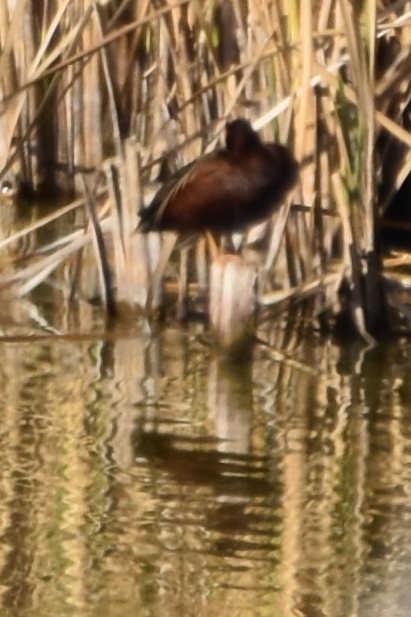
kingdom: Animalia
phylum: Chordata
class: Aves
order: Anseriformes
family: Anatidae
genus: Spatula
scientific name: Spatula cyanoptera
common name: Cinnamon teal
